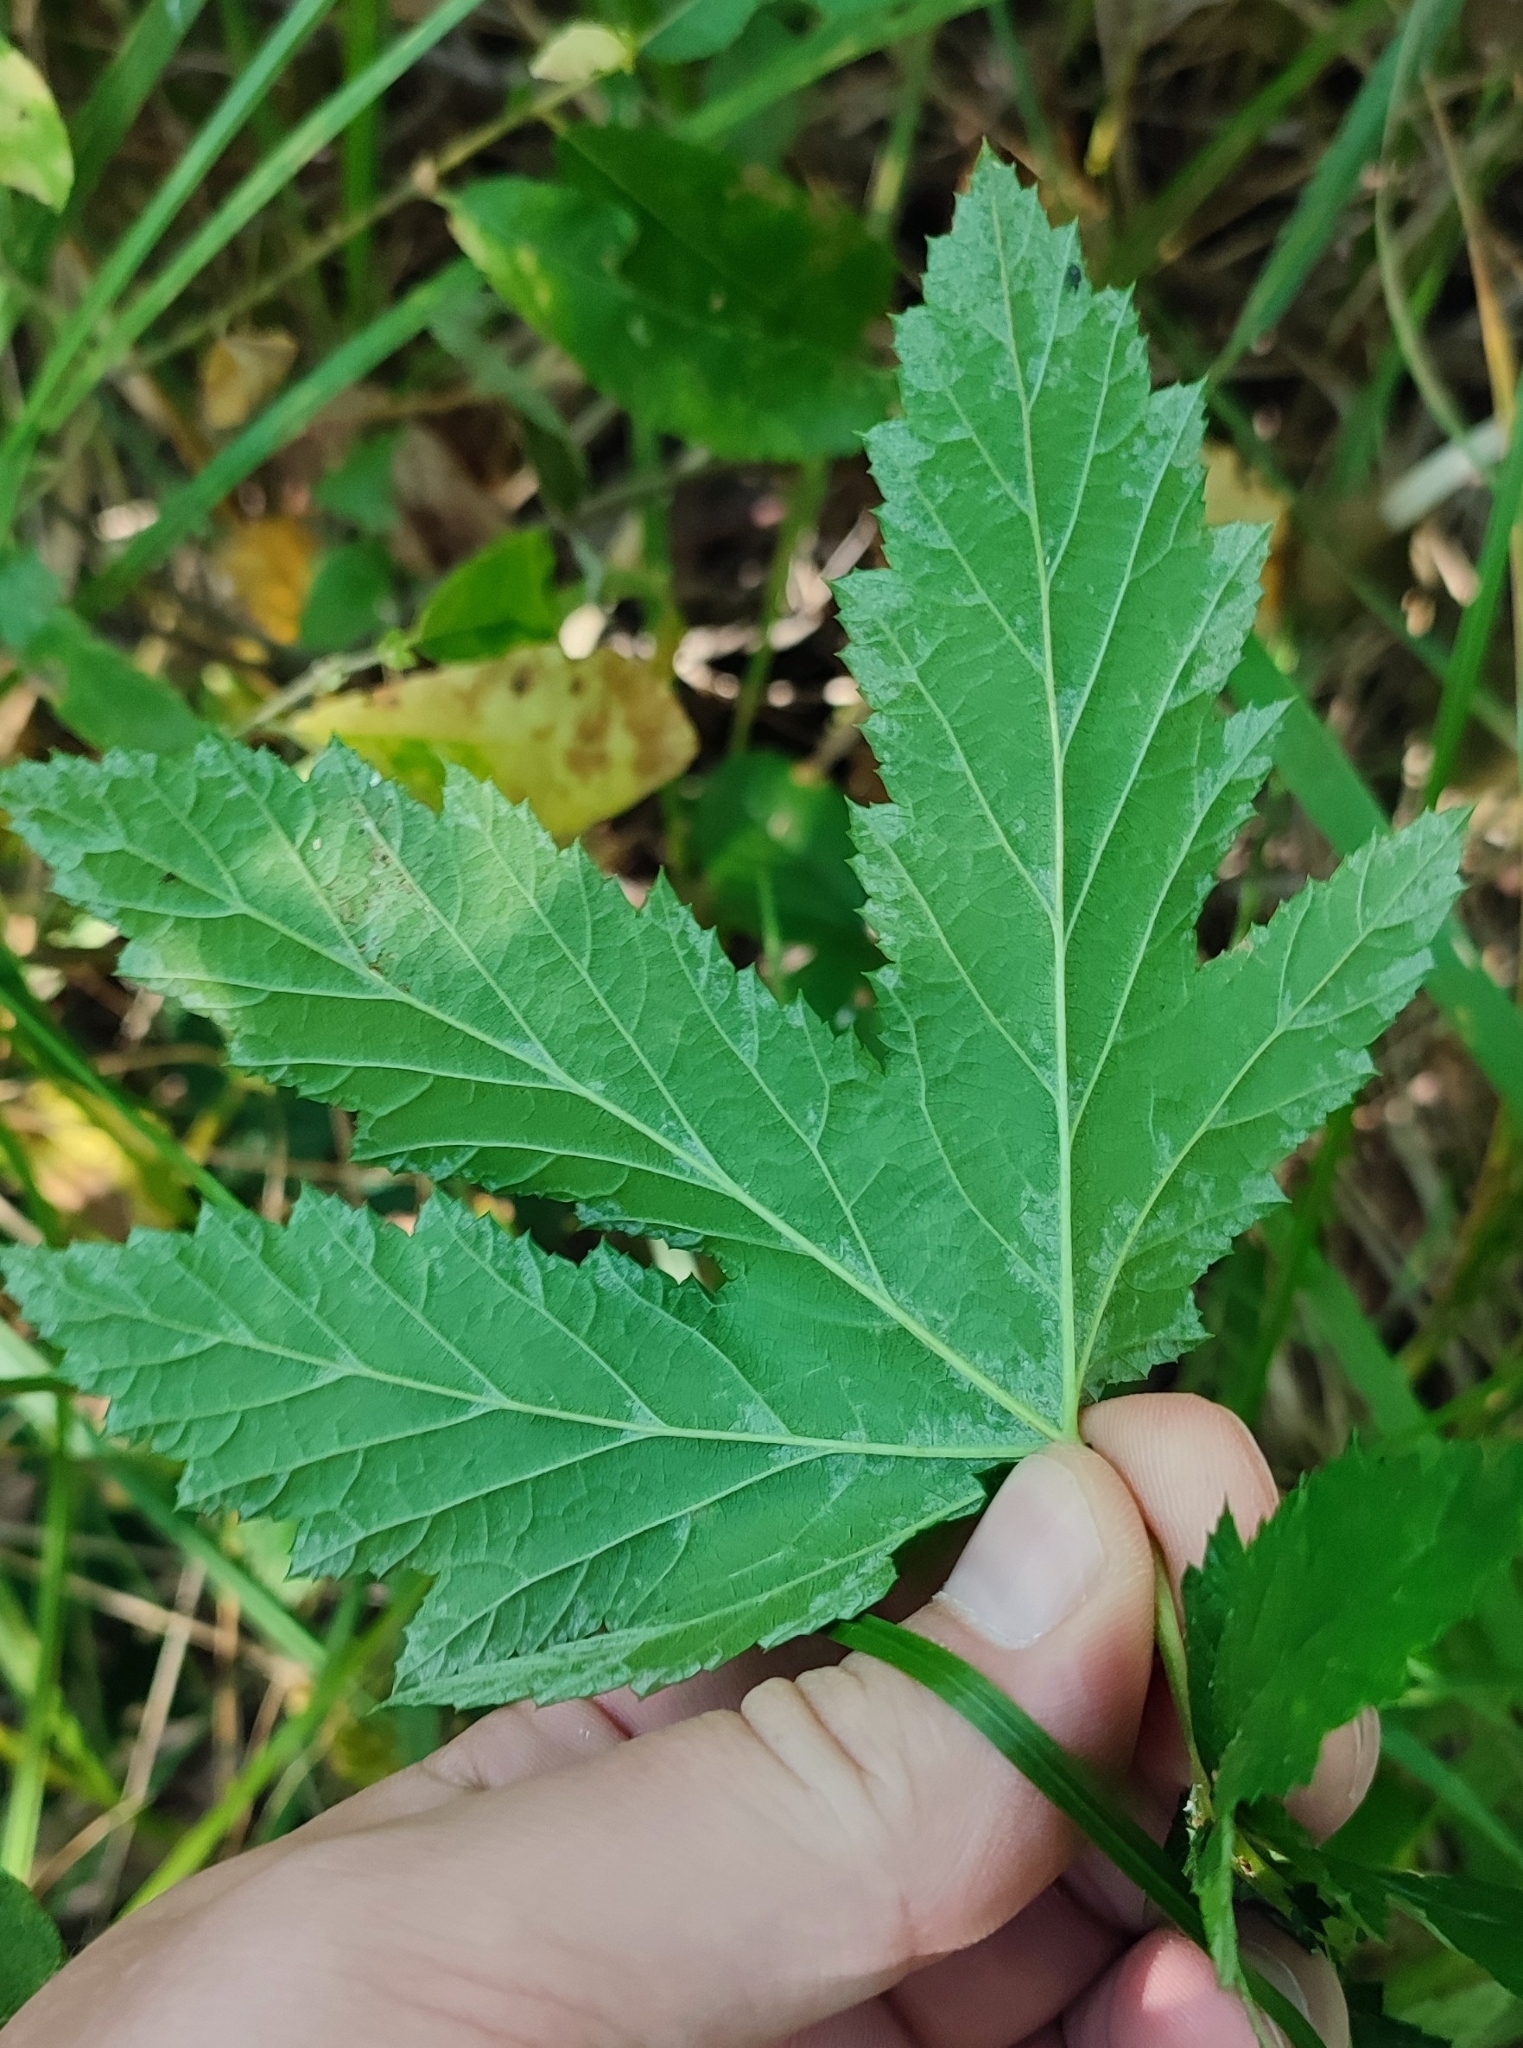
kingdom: Plantae
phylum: Tracheophyta
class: Magnoliopsida
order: Rosales
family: Rosaceae
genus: Filipendula
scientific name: Filipendula ulmaria
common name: Meadowsweet
